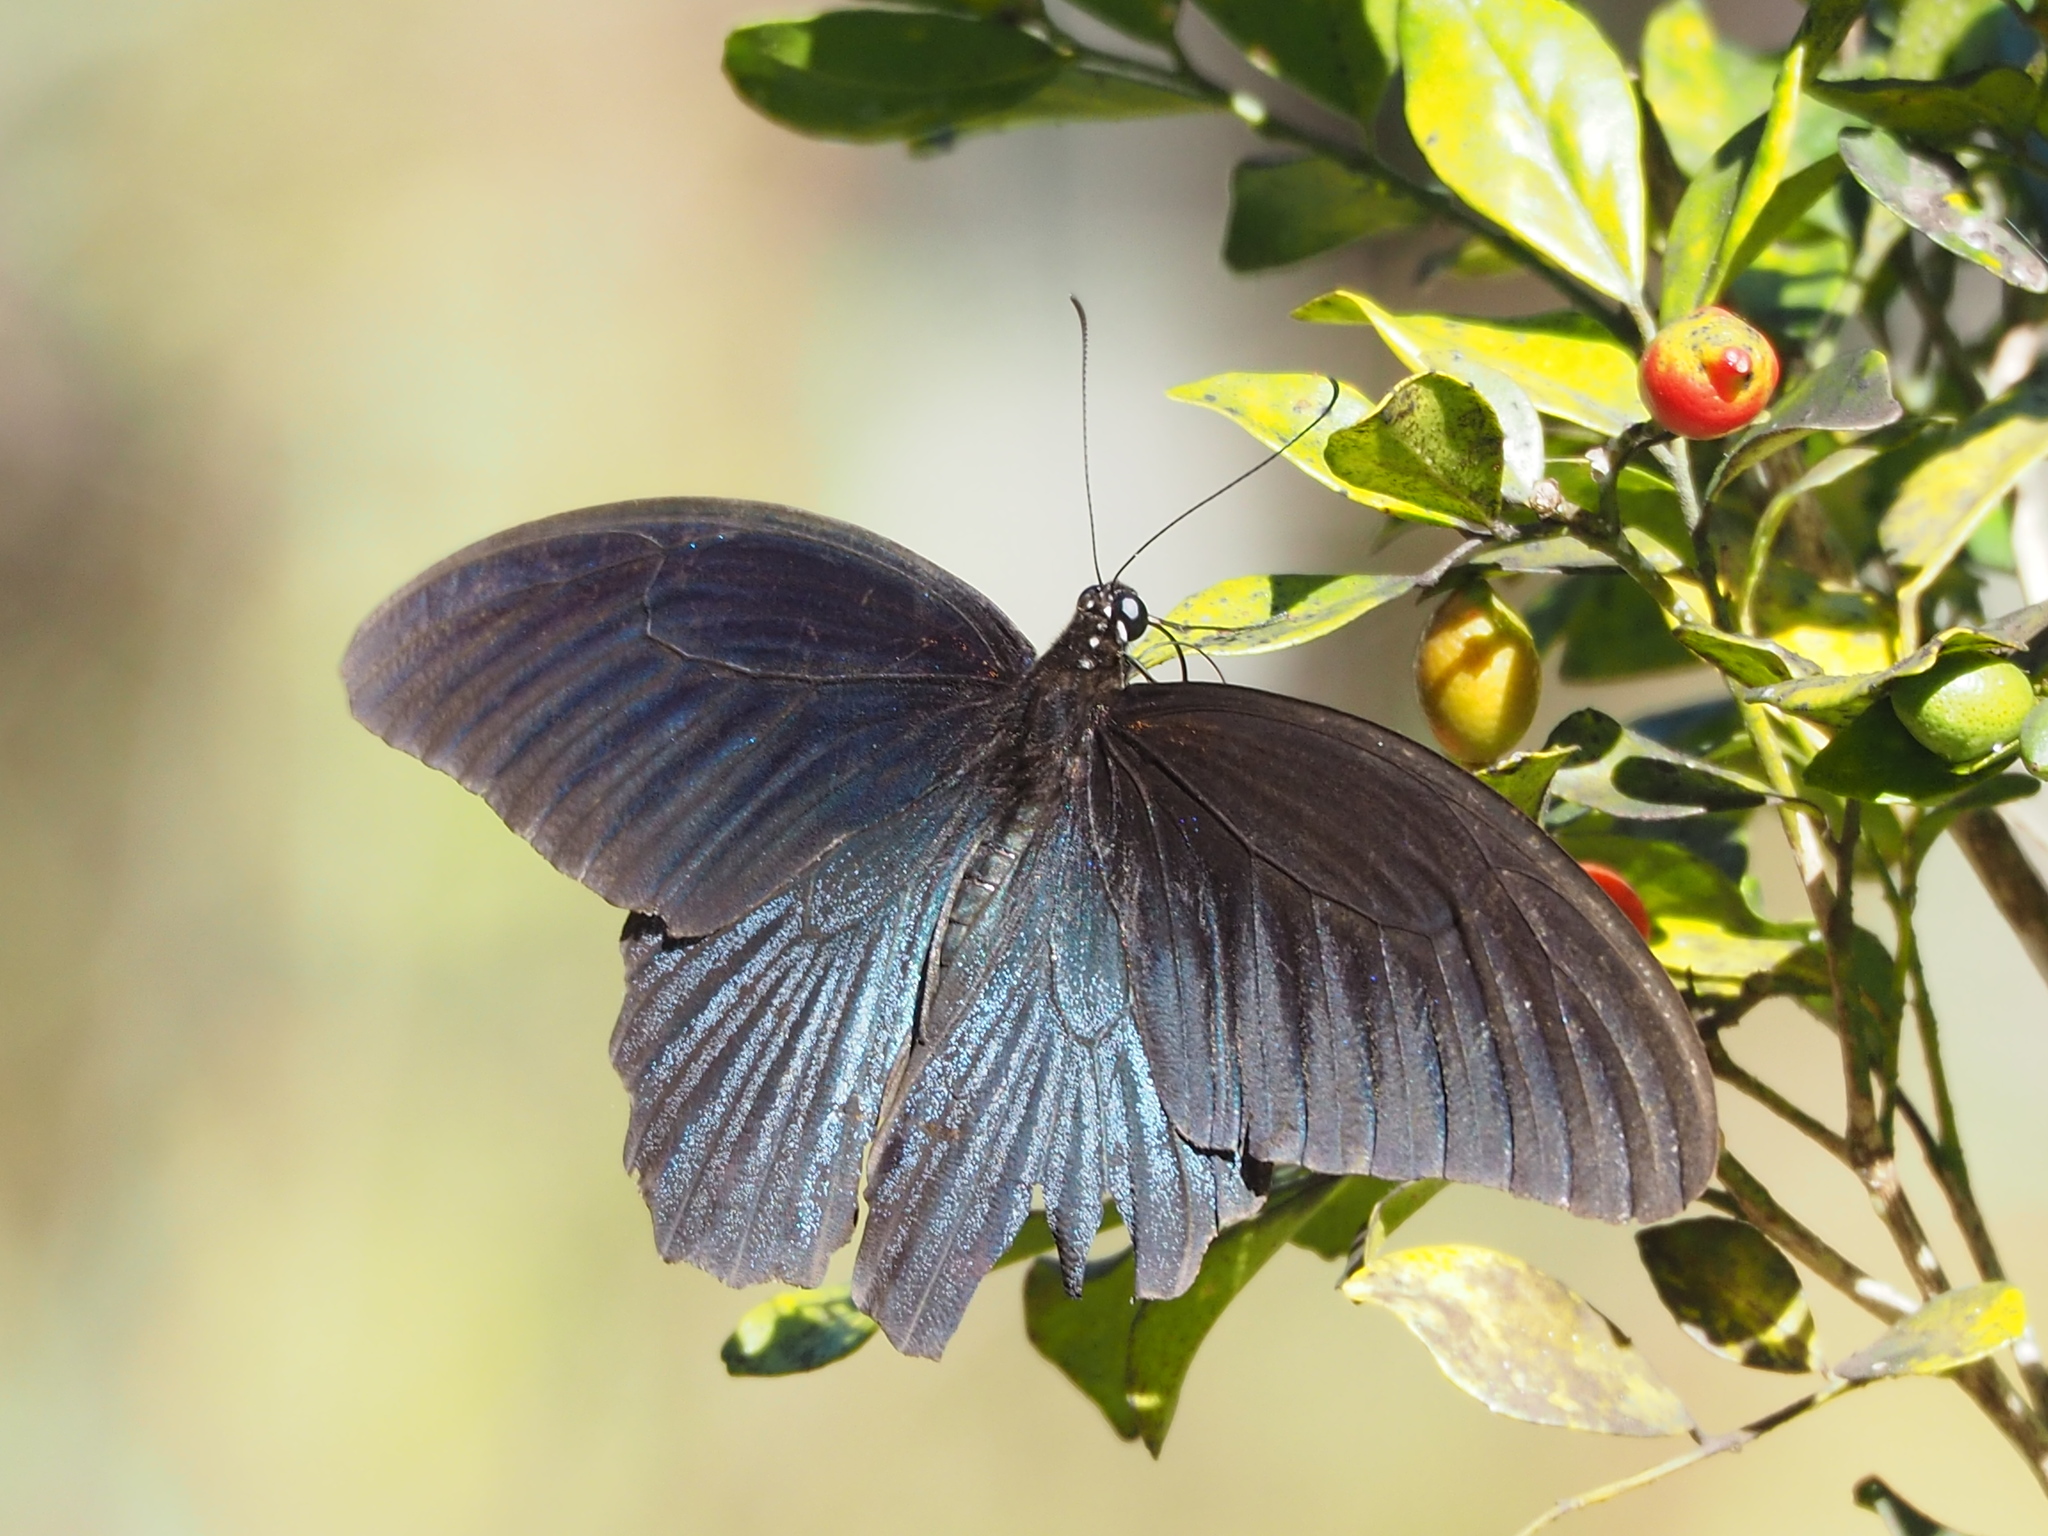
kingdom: Animalia
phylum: Arthropoda
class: Insecta
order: Lepidoptera
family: Papilionidae
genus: Papilio
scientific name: Papilio memnon
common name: Great mormon
